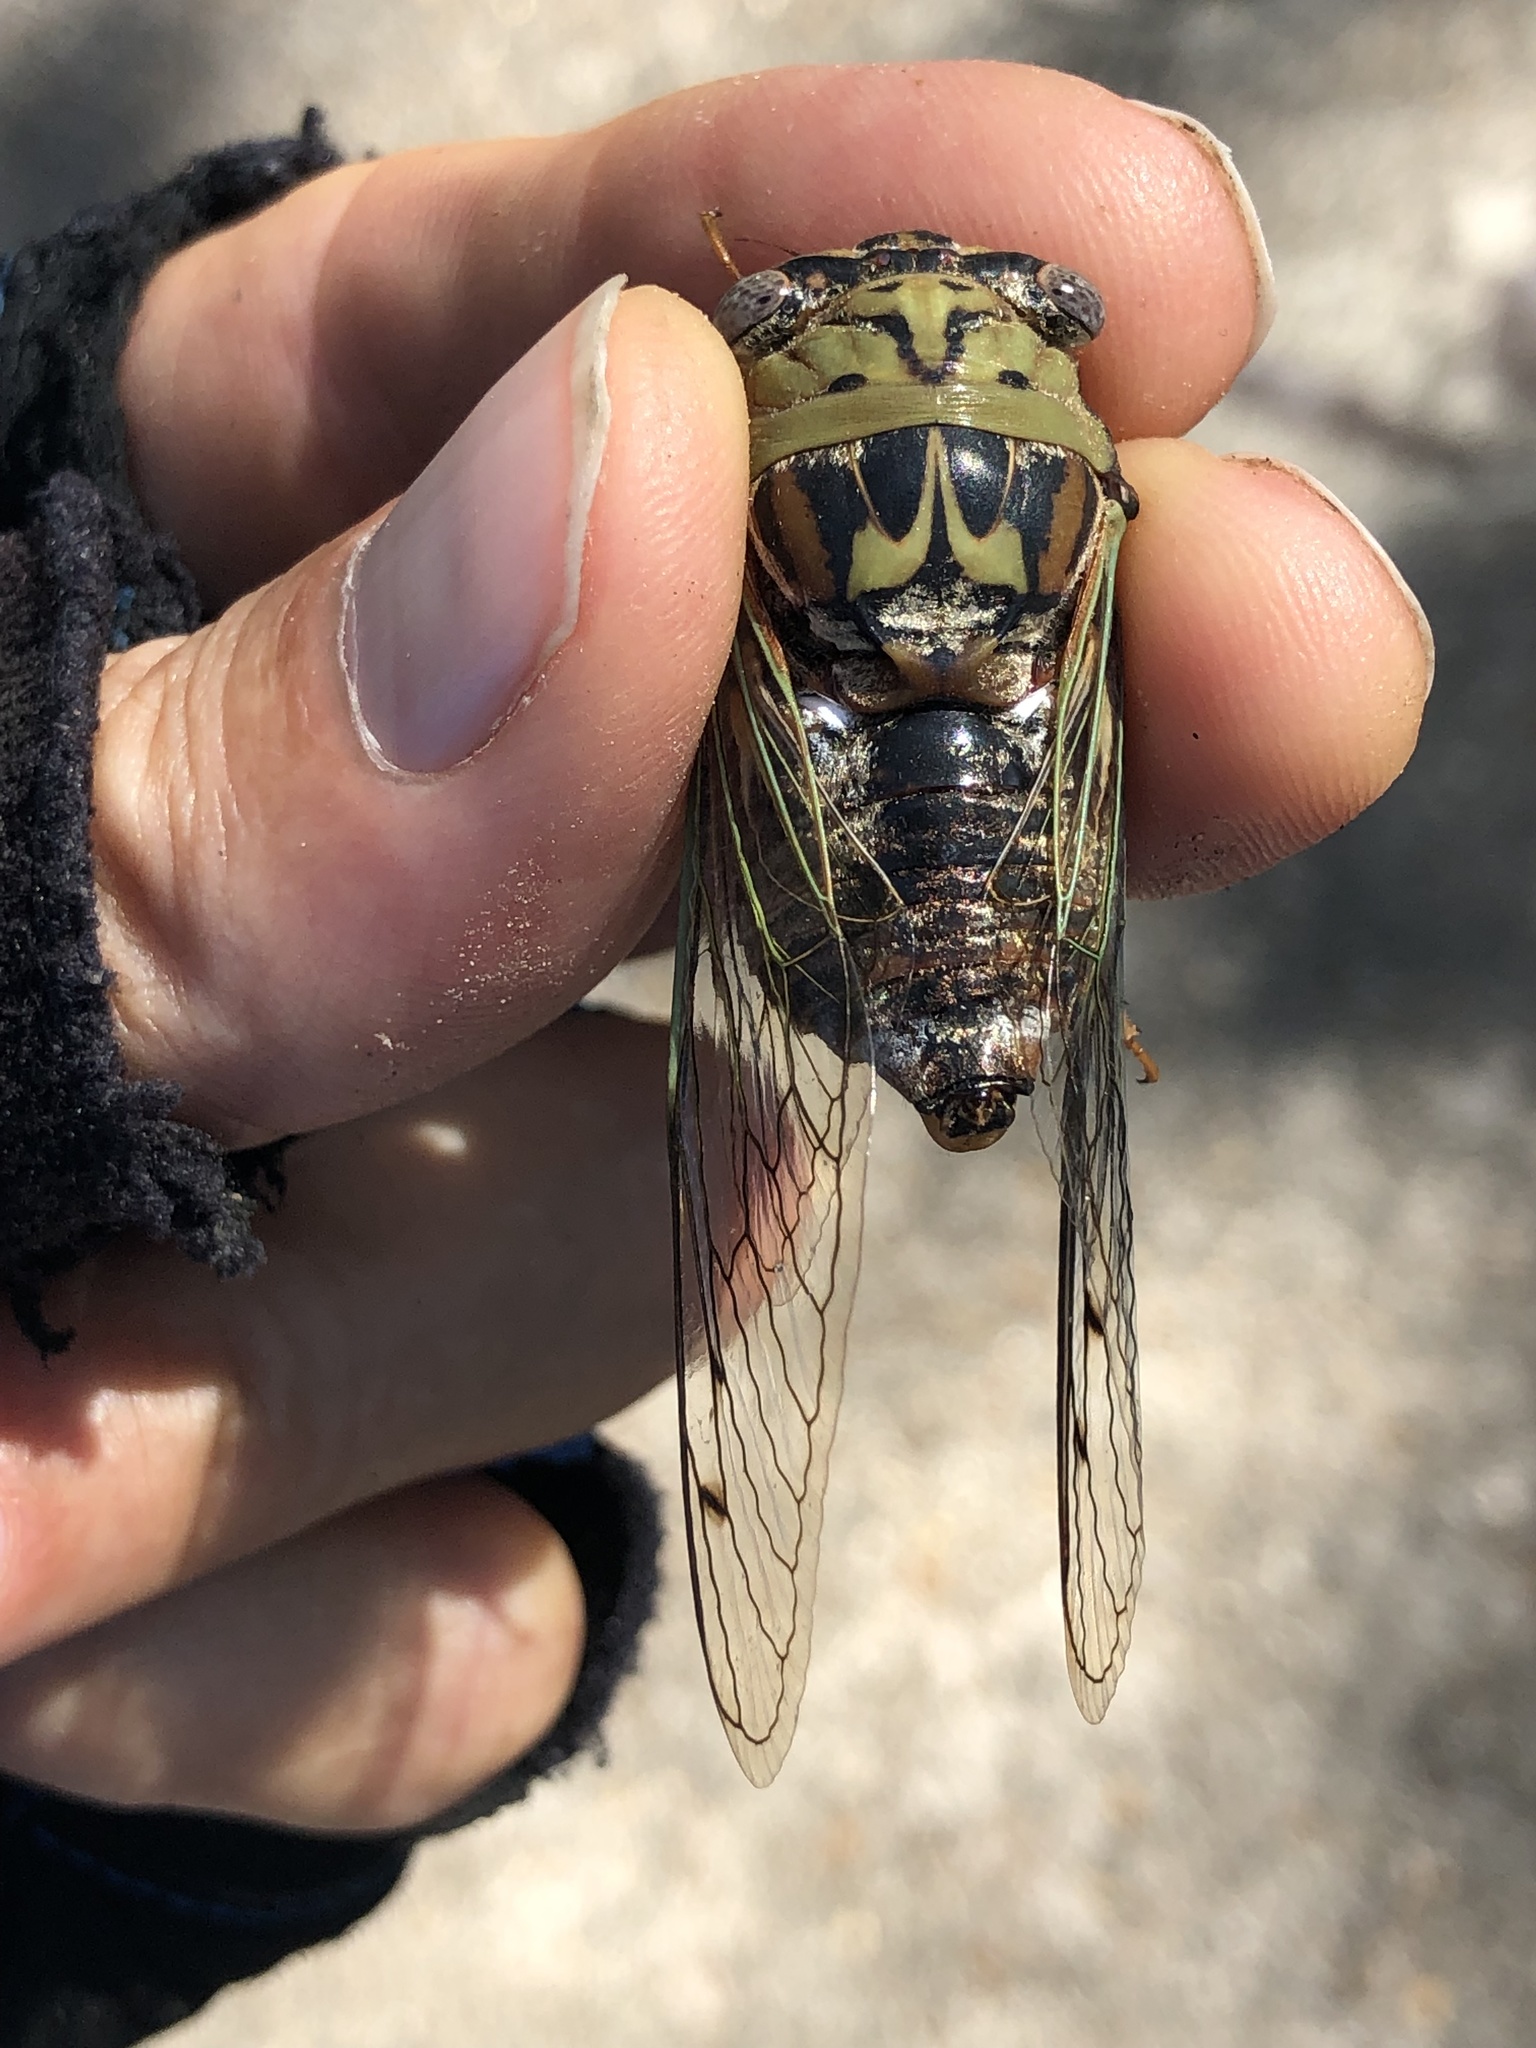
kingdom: Animalia
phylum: Arthropoda
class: Insecta
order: Hemiptera
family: Cicadidae
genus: Megatibicen
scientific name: Megatibicen resh
